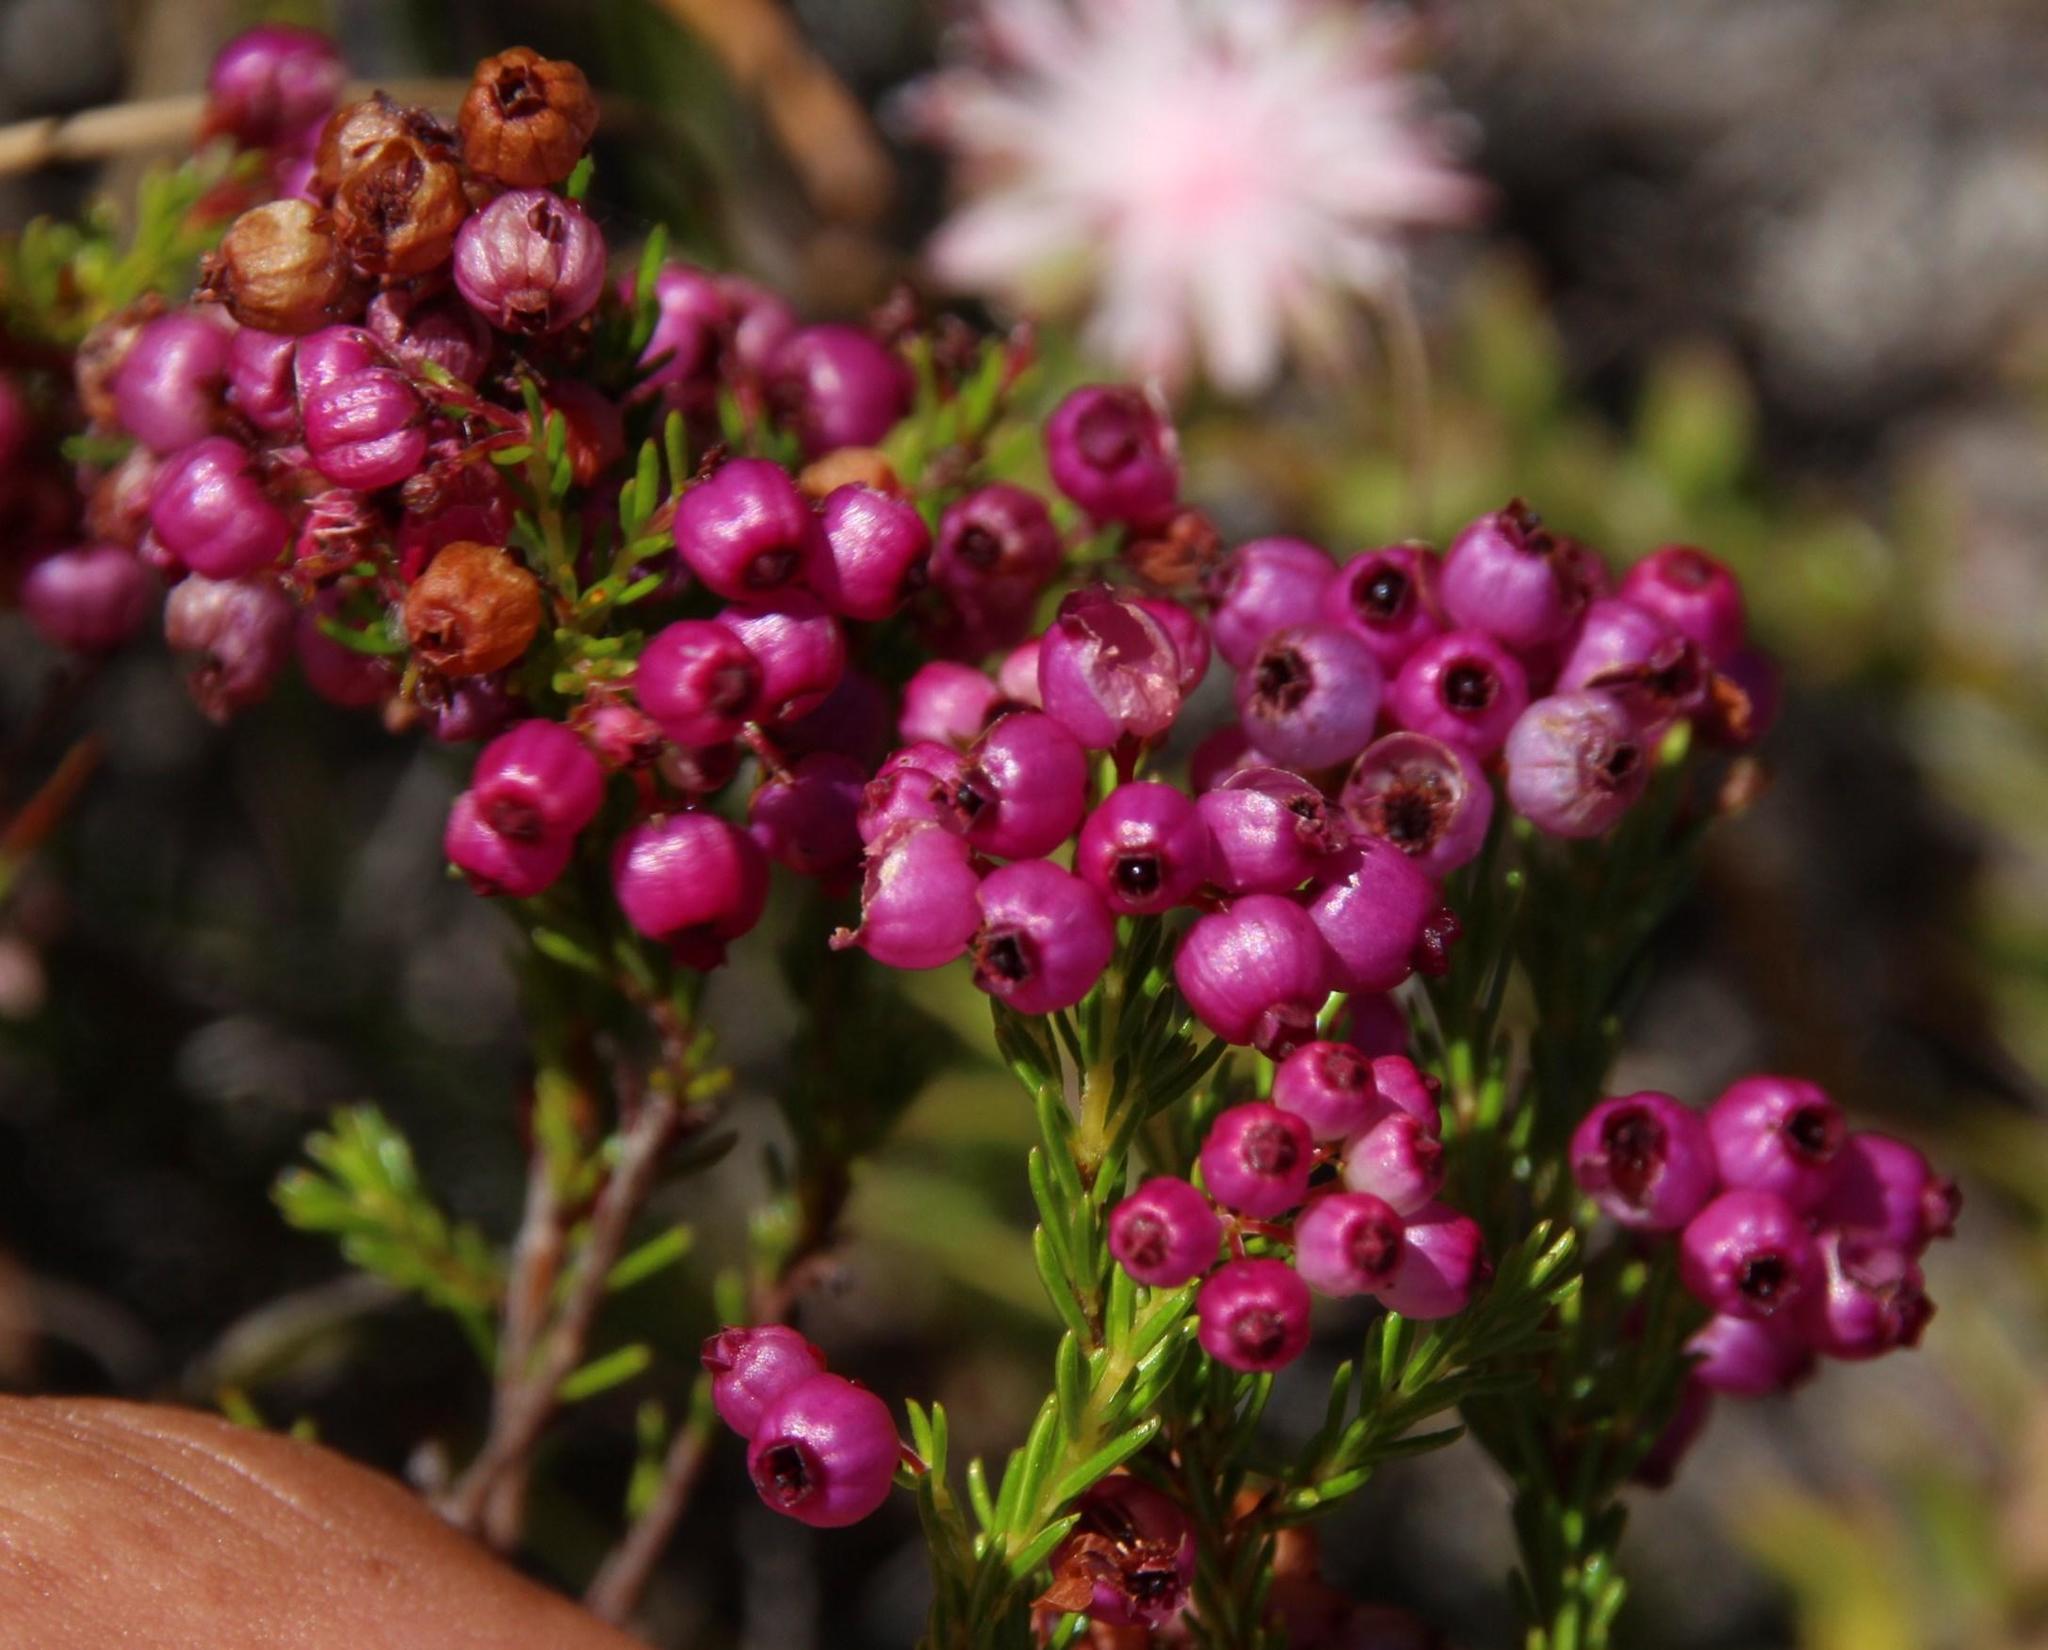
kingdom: Plantae
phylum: Tracheophyta
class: Magnoliopsida
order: Ericales
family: Ericaceae
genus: Erica
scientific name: Erica multumbellifera
